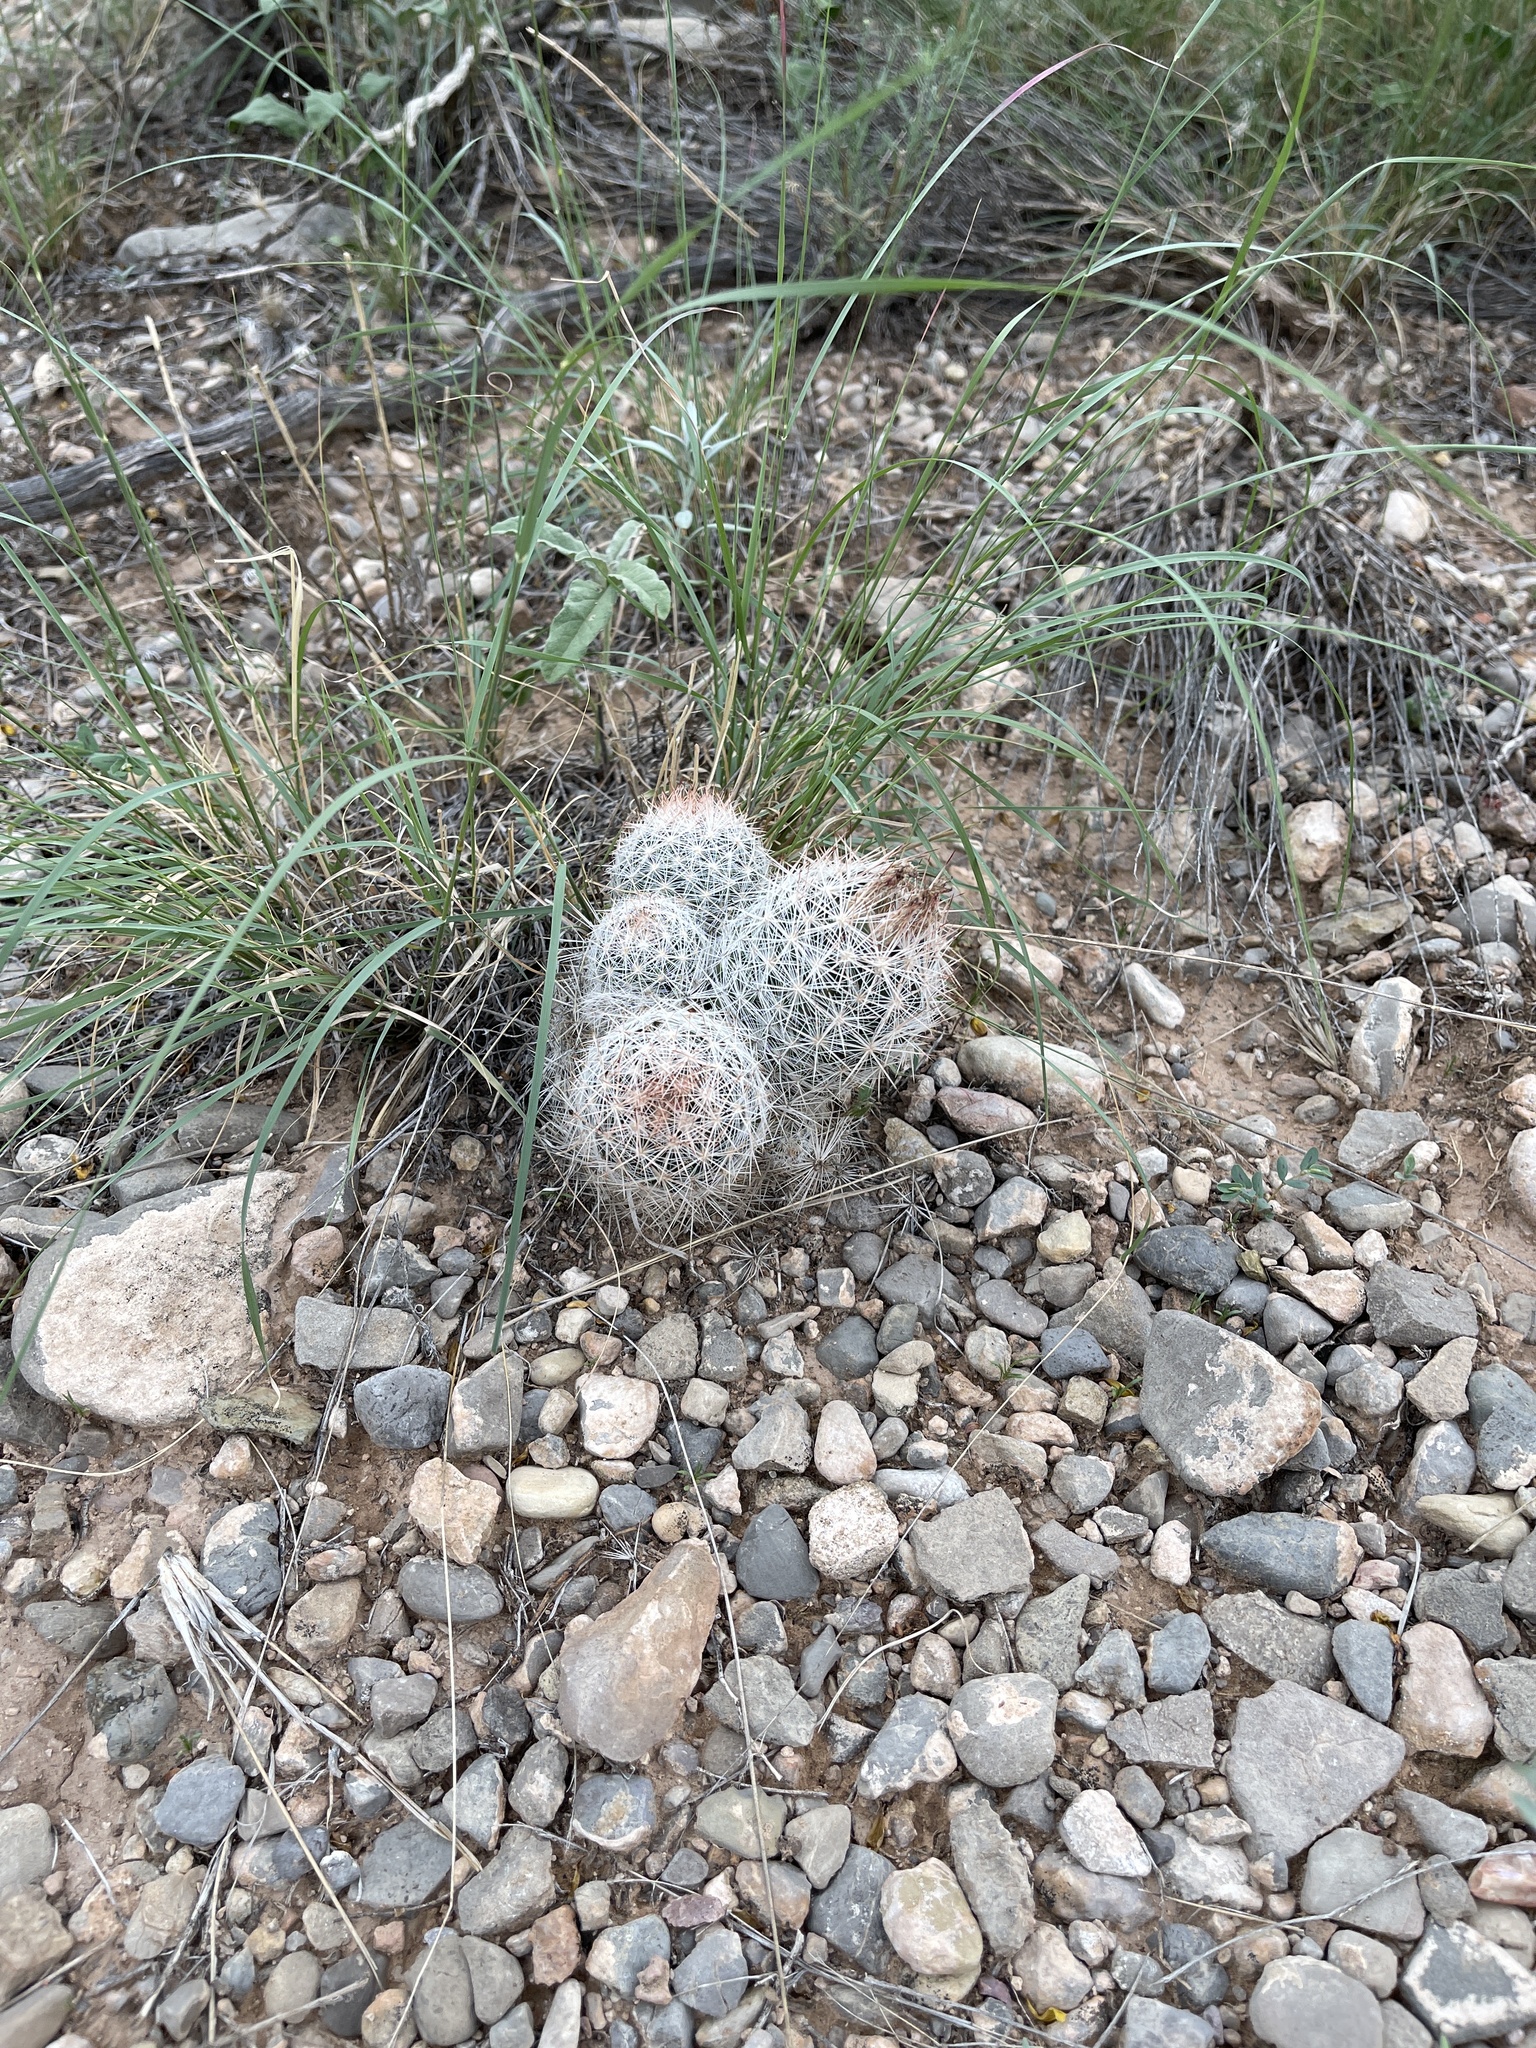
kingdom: Plantae
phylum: Tracheophyta
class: Magnoliopsida
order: Caryophyllales
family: Cactaceae
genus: Pelecyphora
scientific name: Pelecyphora vivipara
